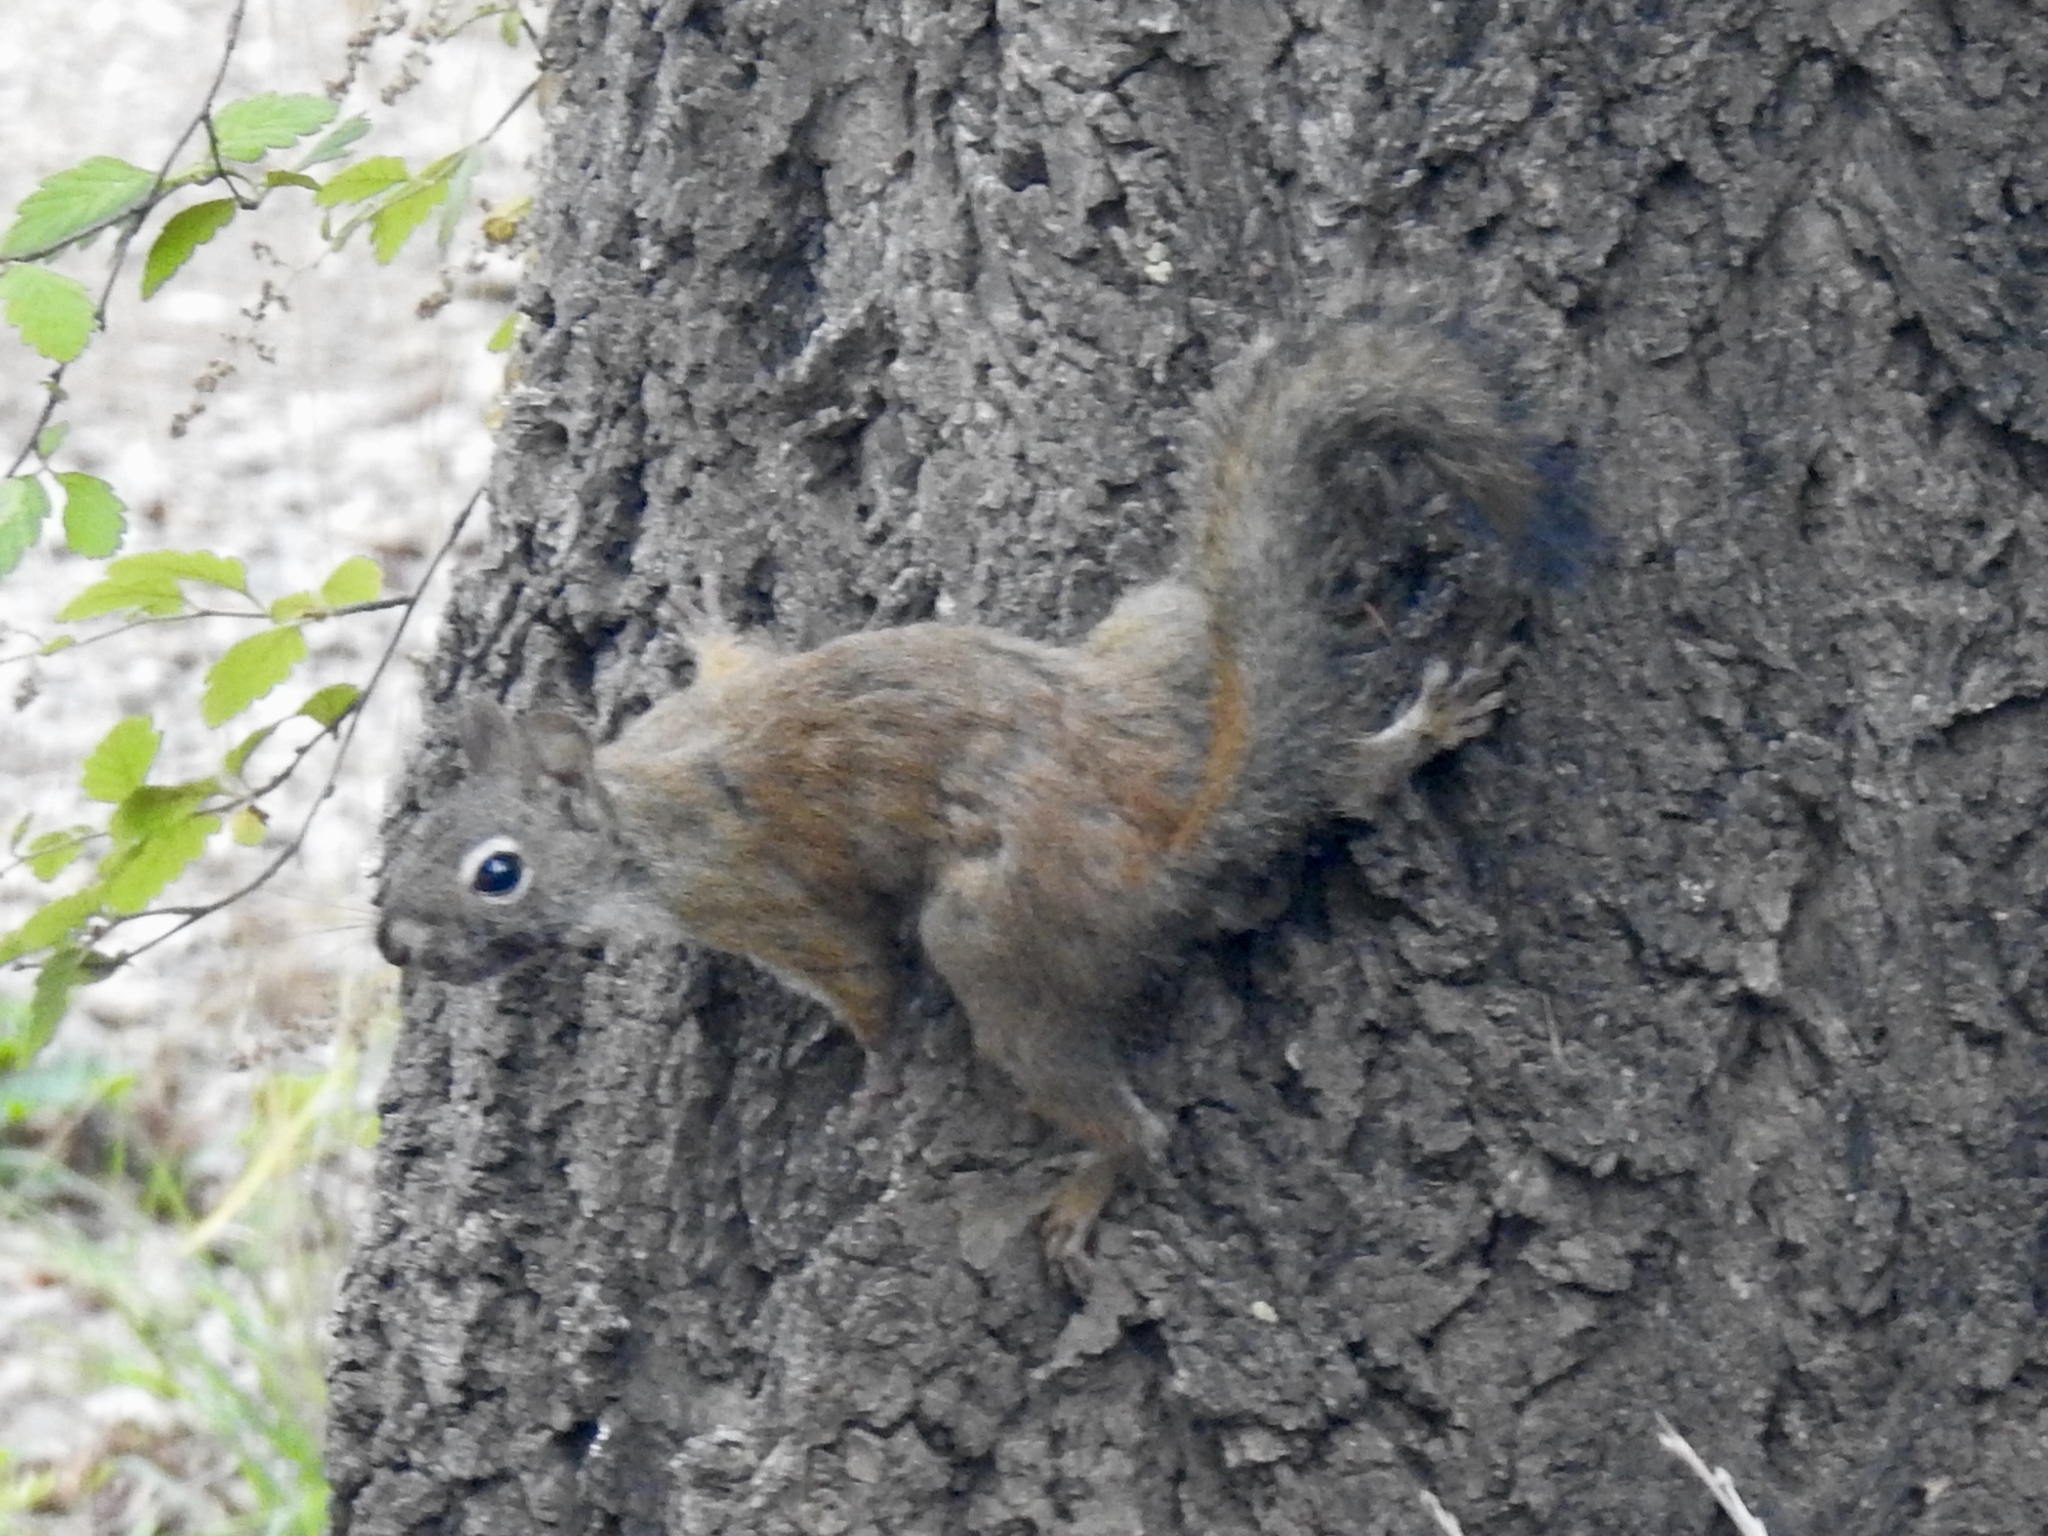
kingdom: Animalia
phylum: Chordata
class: Mammalia
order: Rodentia
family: Sciuridae
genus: Tamiasciurus
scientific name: Tamiasciurus hudsonicus
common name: Red squirrel
